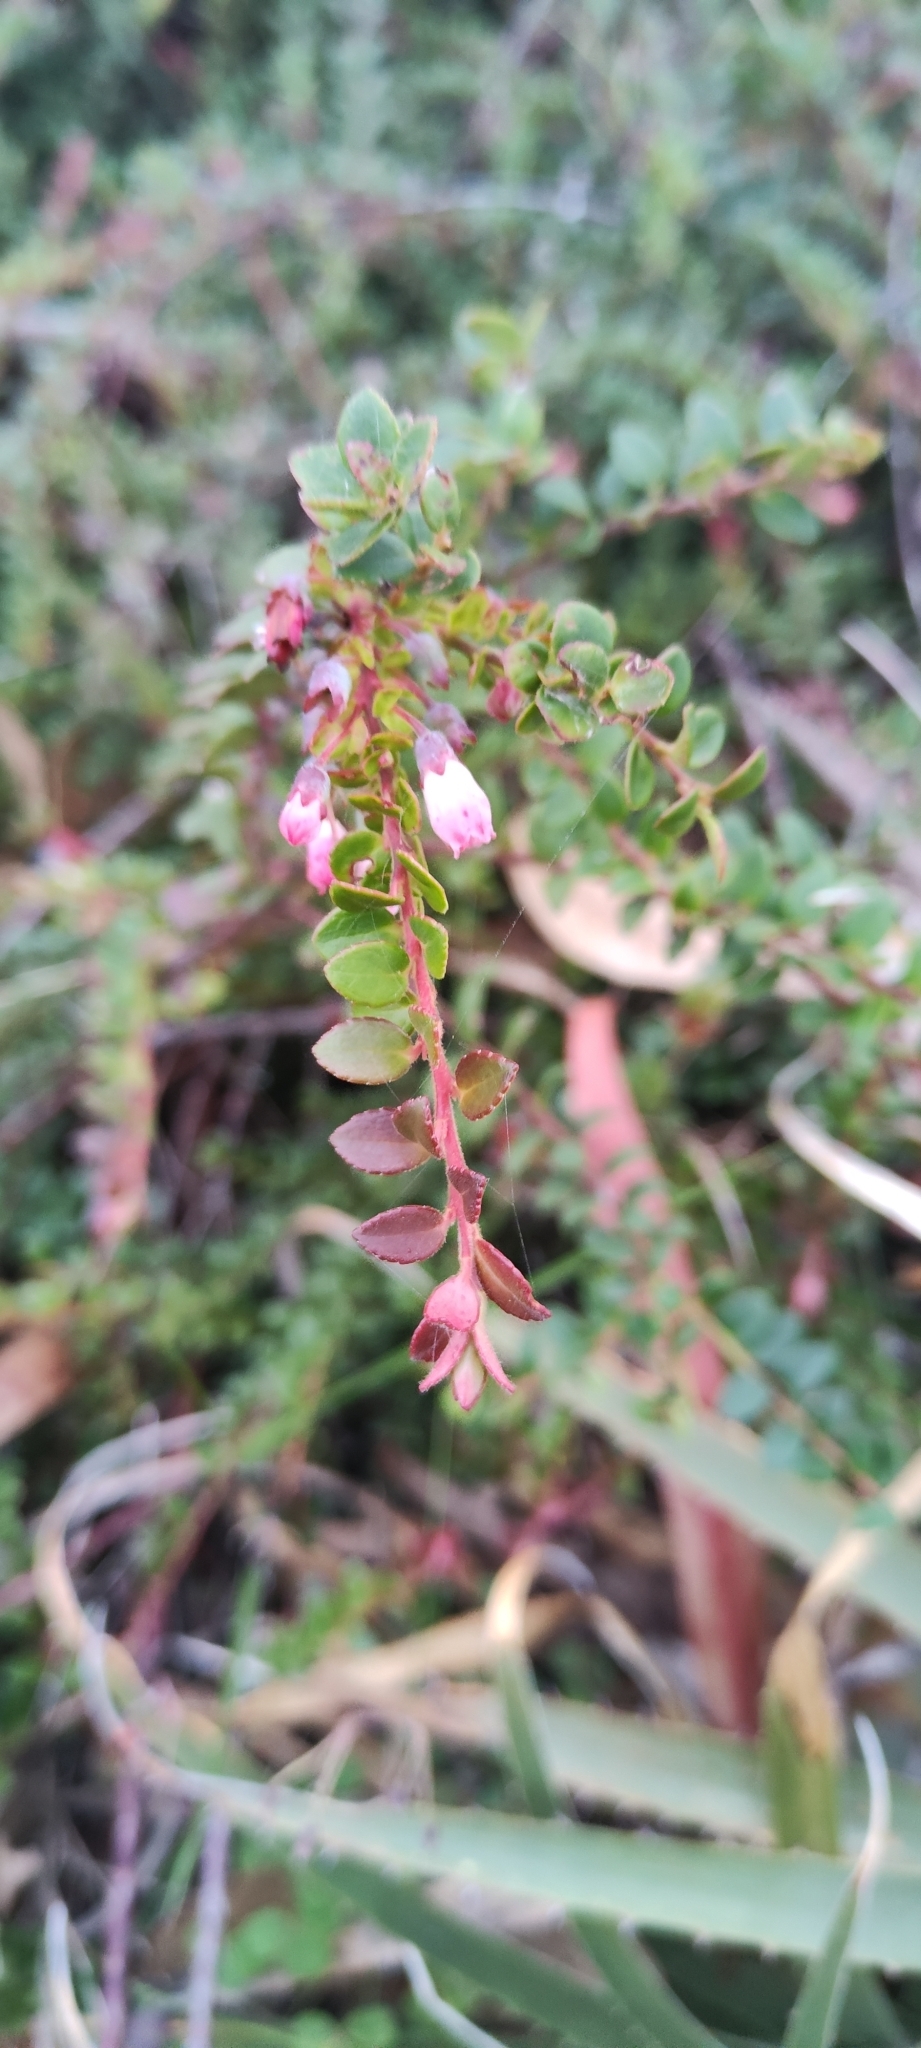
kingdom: Plantae
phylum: Tracheophyta
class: Magnoliopsida
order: Ericales
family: Ericaceae
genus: Vaccinium
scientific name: Vaccinium floribundum
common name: Colombian blueberry
